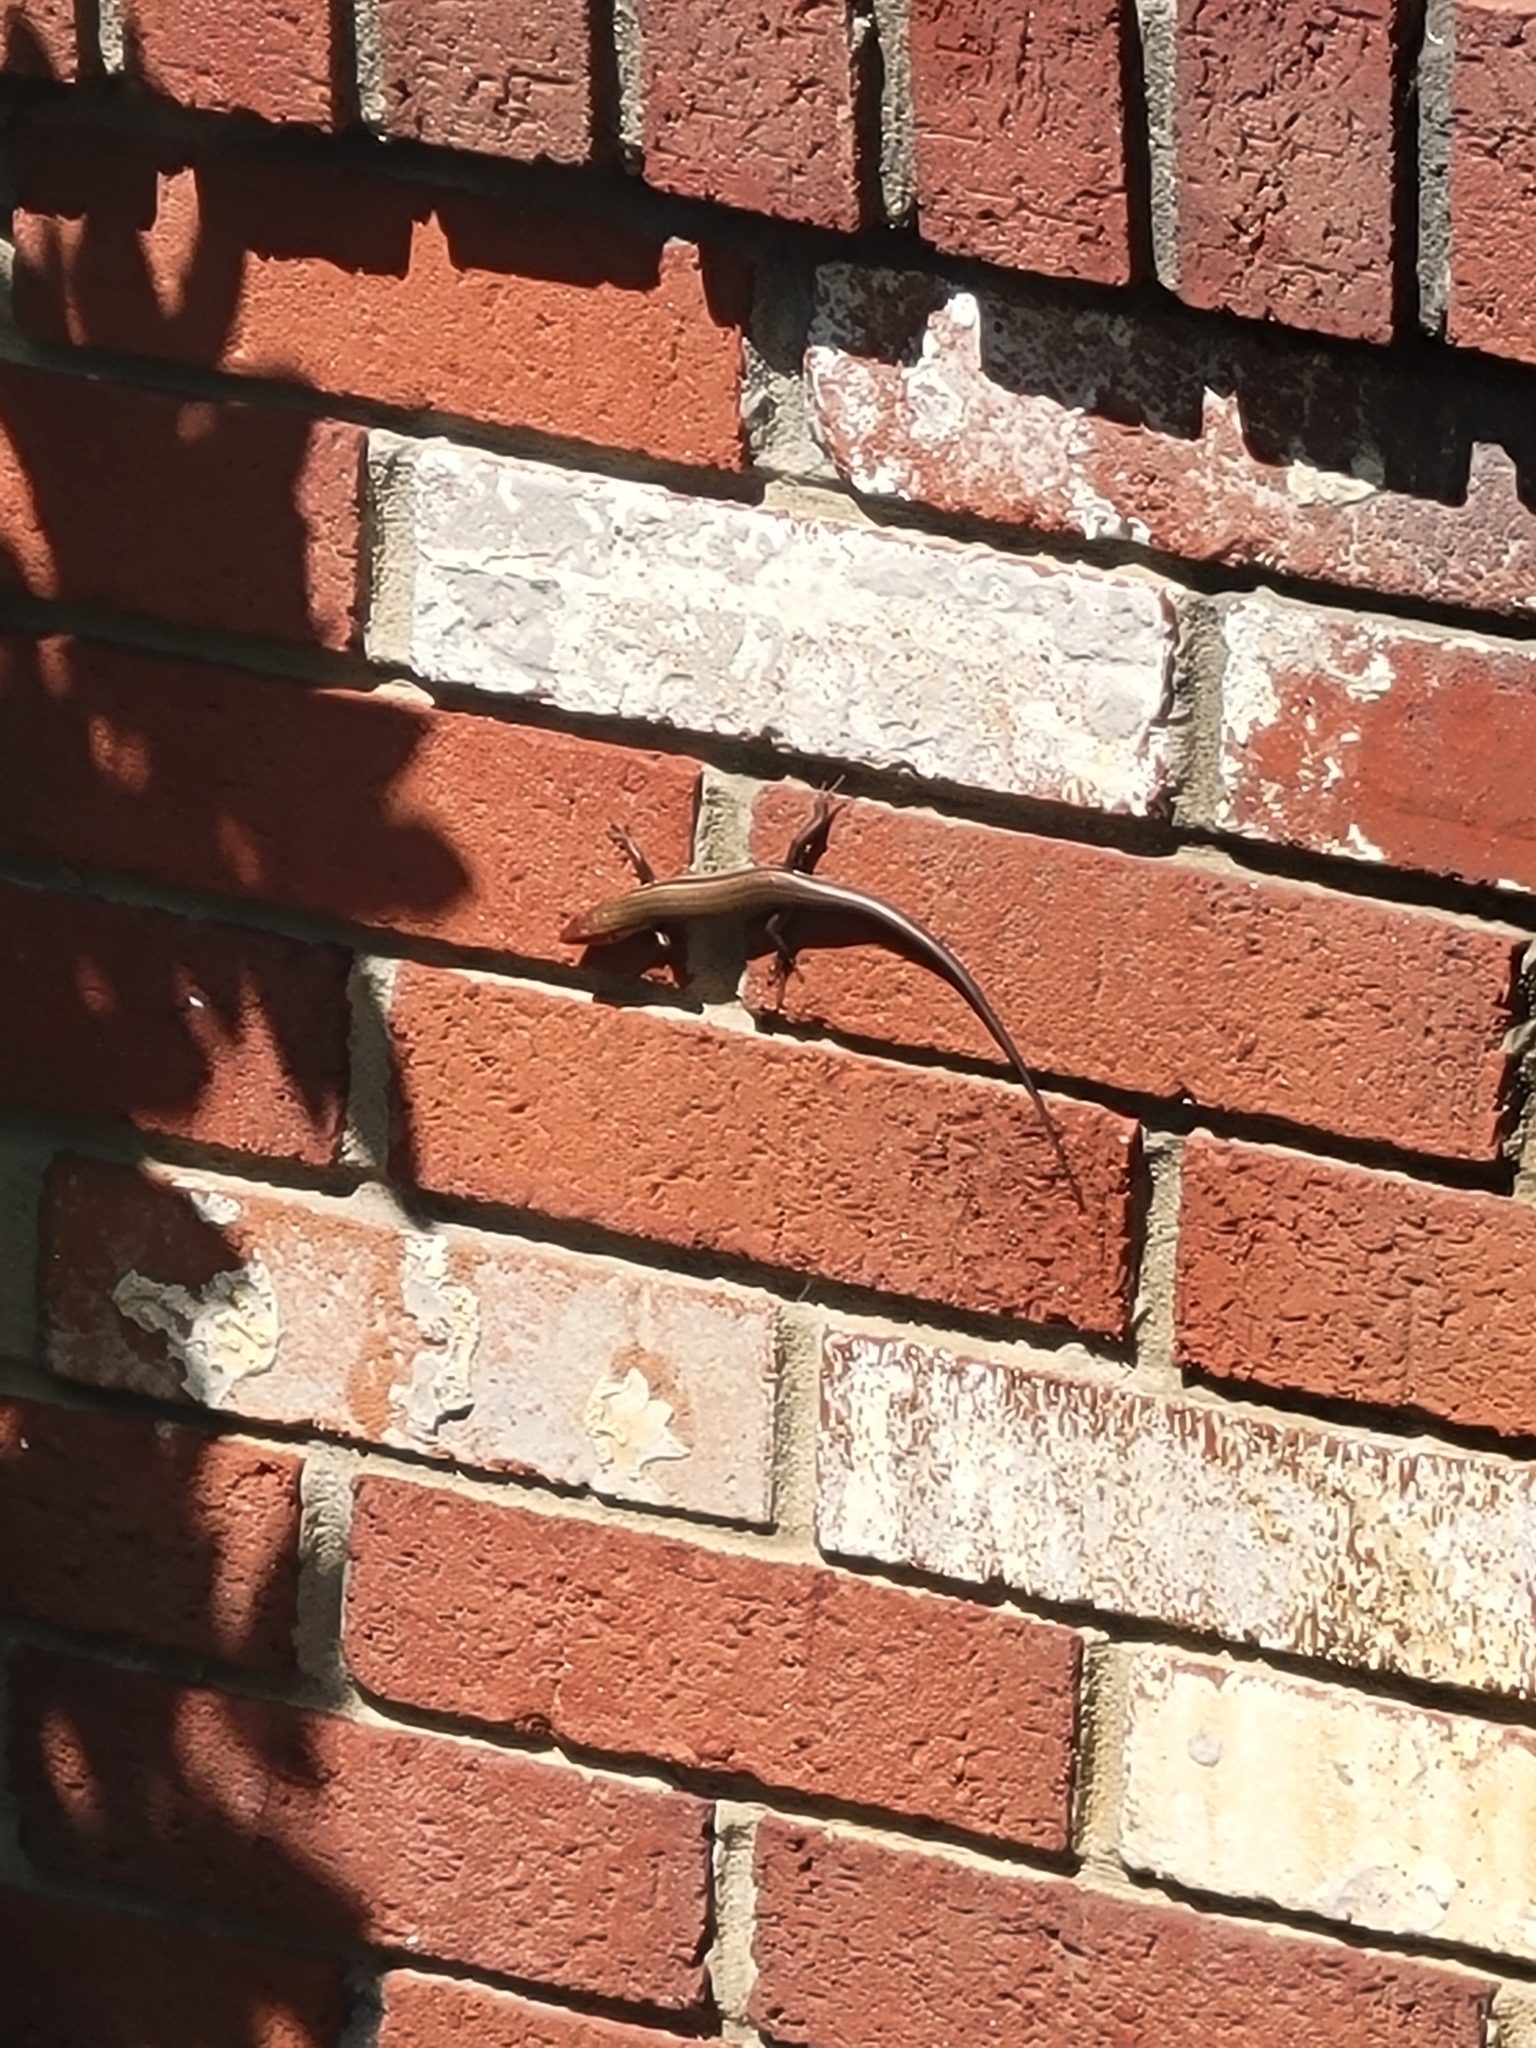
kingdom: Animalia
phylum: Chordata
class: Squamata
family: Scincidae
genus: Plestiodon
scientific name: Plestiodon inexpectatus
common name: Southeastern five-lined skink
